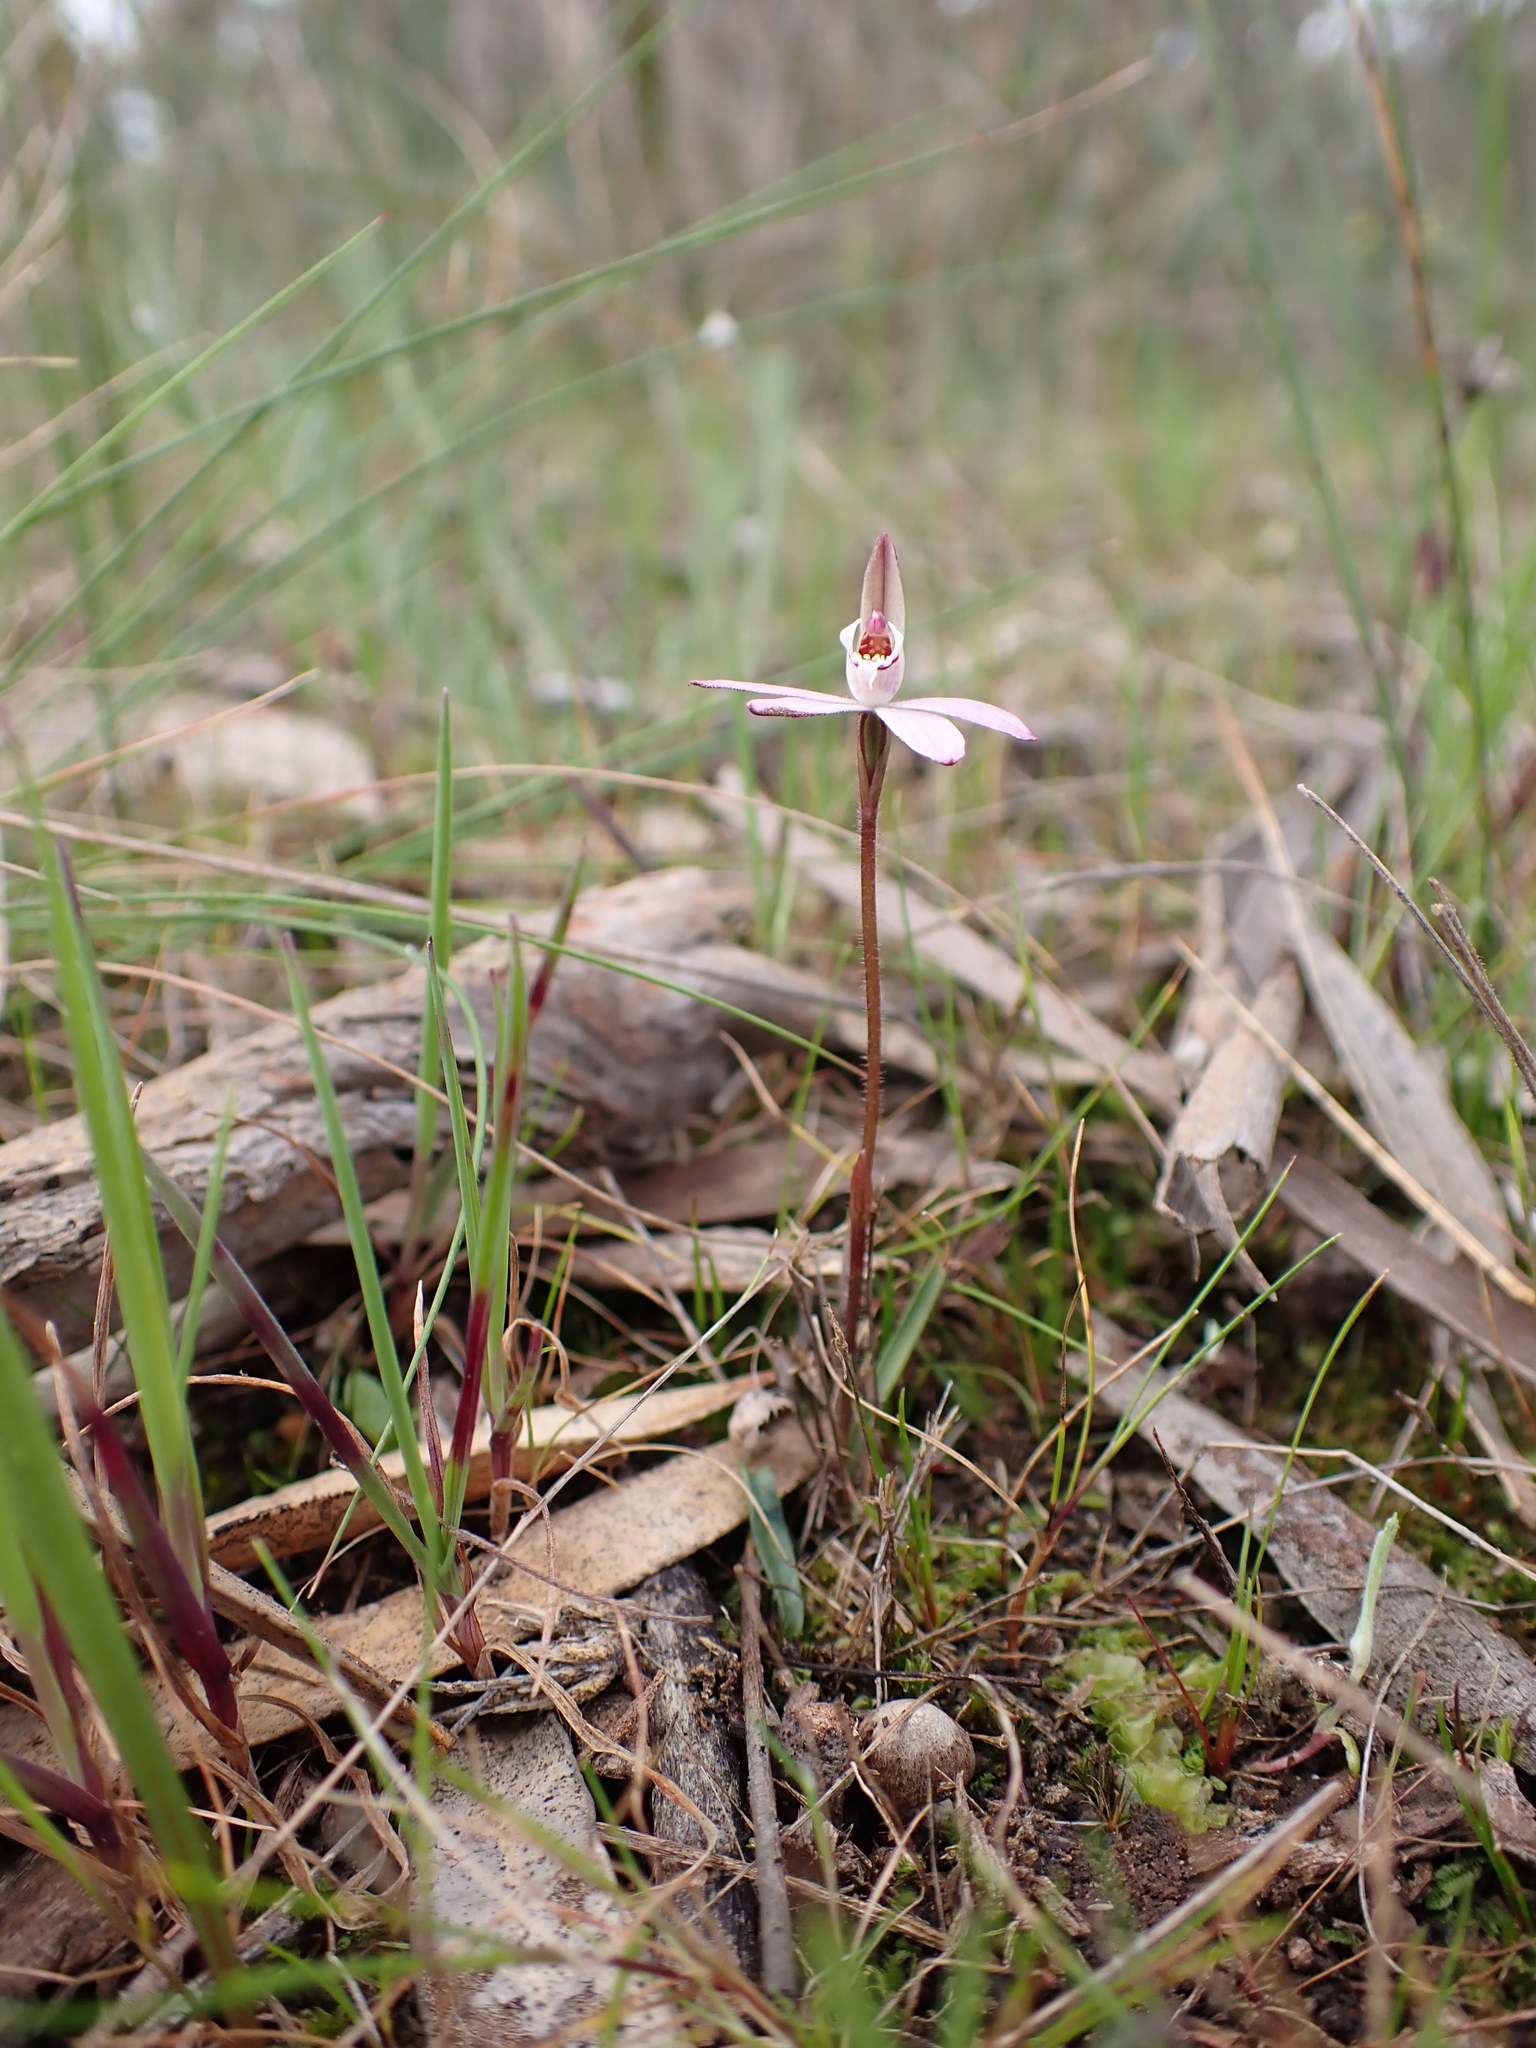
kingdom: Plantae
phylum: Tracheophyta
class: Liliopsida
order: Asparagales
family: Orchidaceae
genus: Caladenia
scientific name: Caladenia fuscata
